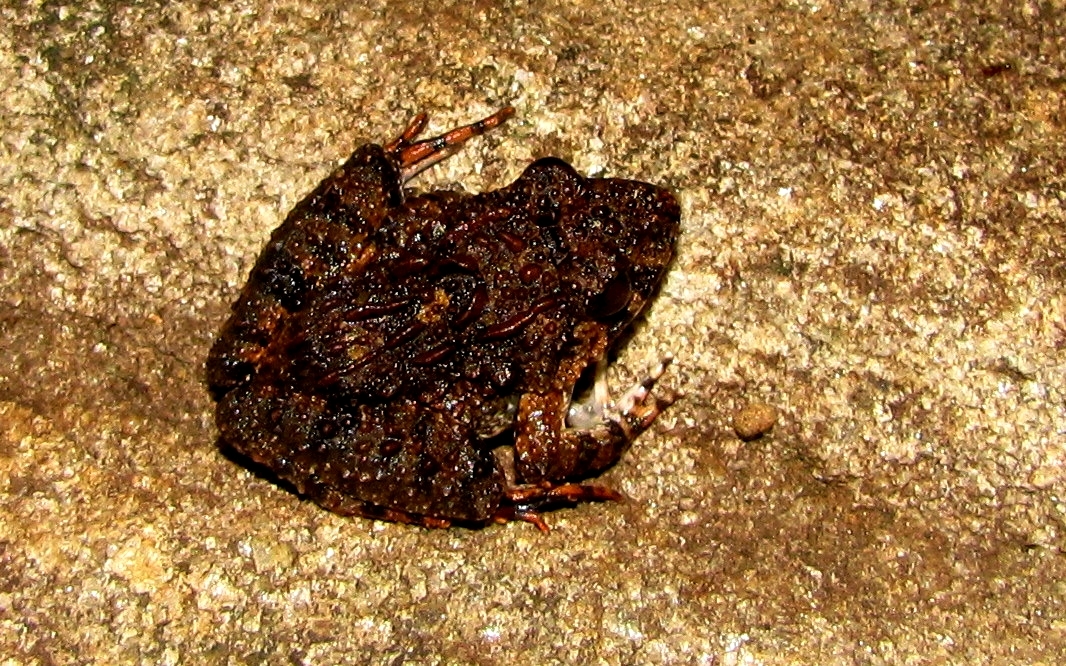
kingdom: Animalia
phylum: Chordata
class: Amphibia
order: Anura
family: Dicroglossidae
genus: Minervarya
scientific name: Minervarya keralensis
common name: Dubois' hill frog
